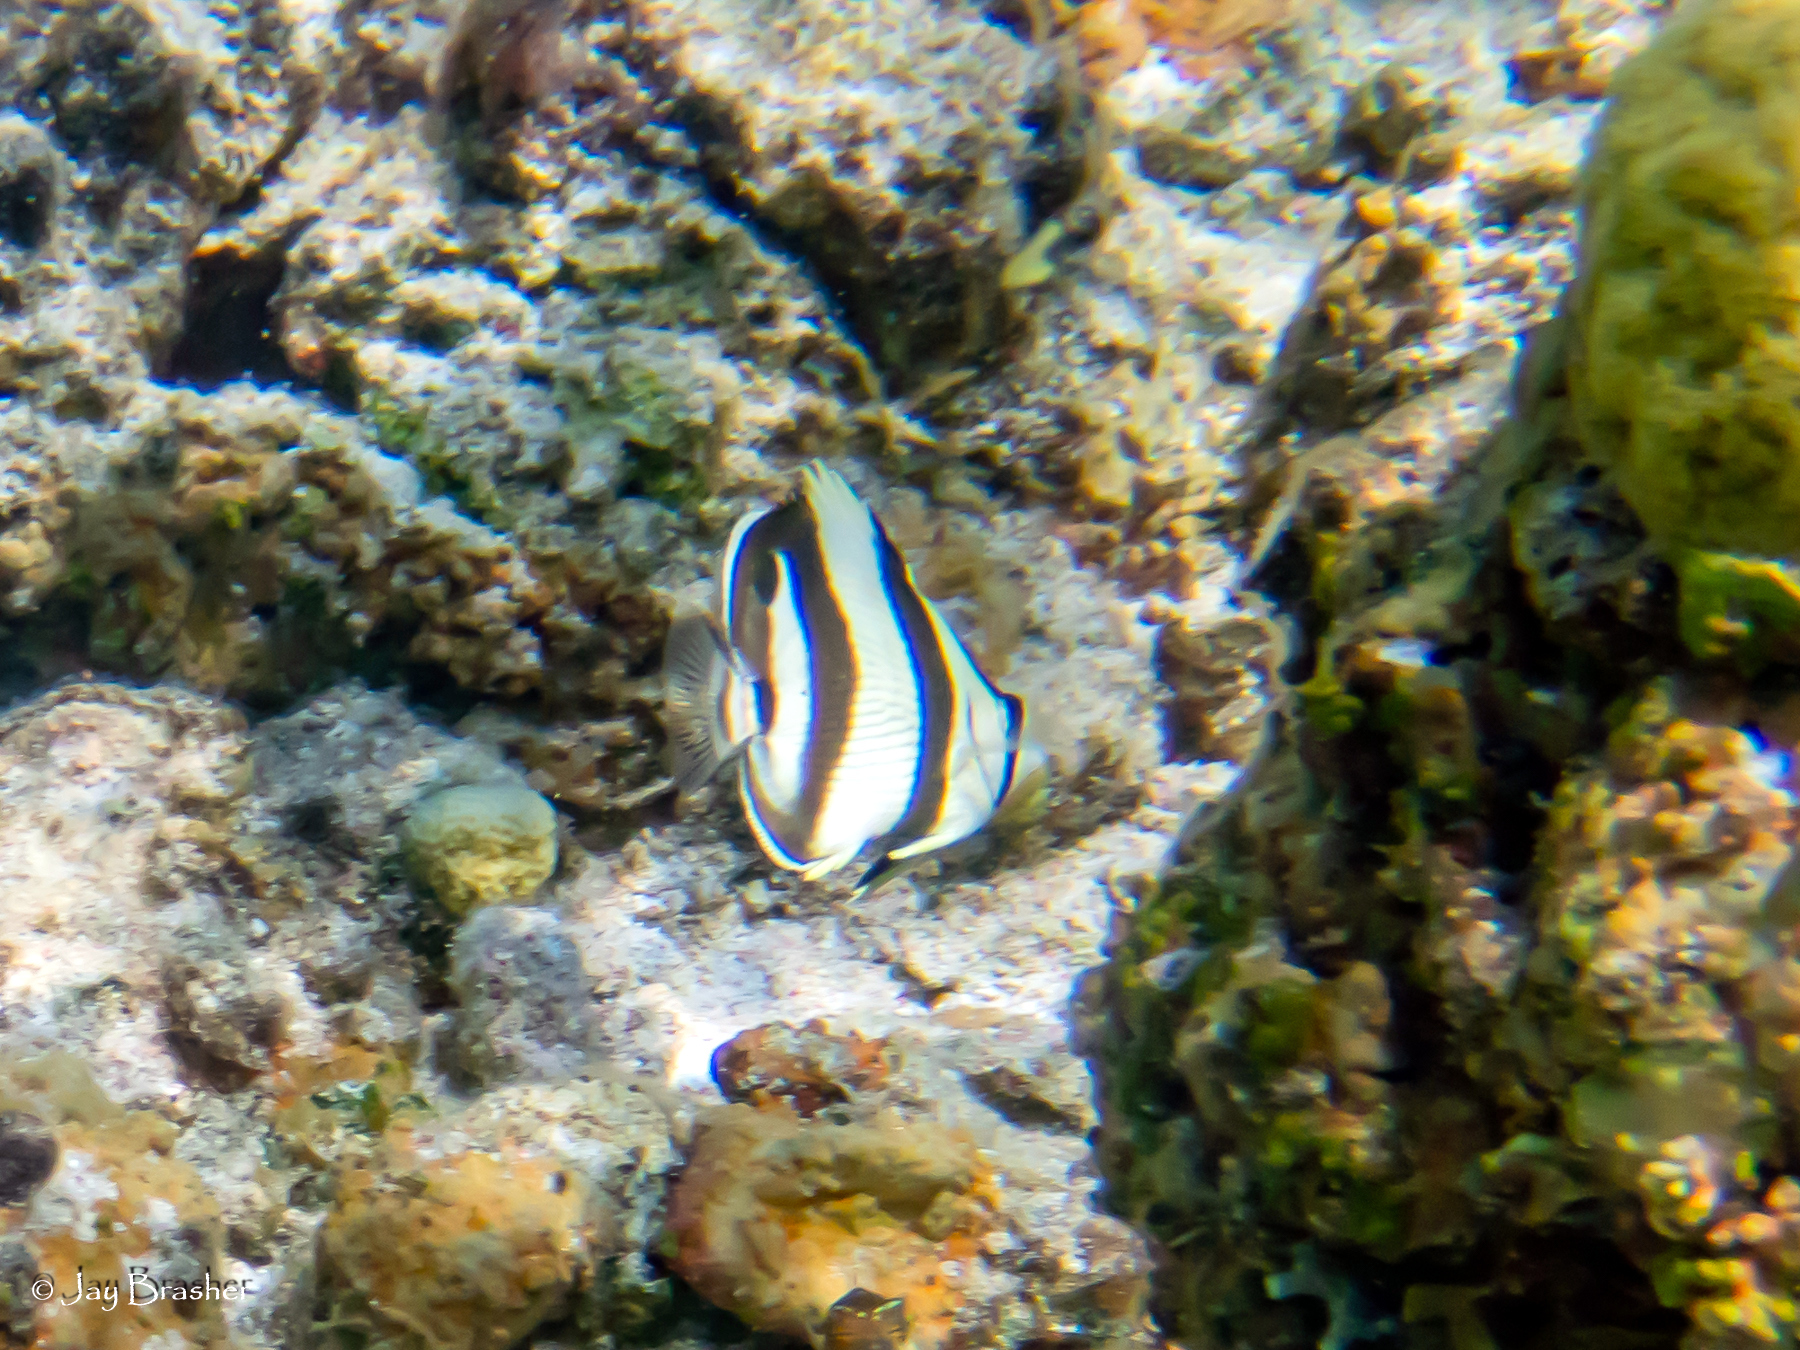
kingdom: Animalia
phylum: Chordata
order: Perciformes
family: Chaetodontidae
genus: Chaetodon
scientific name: Chaetodon striatus
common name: Banded butterflyfish
